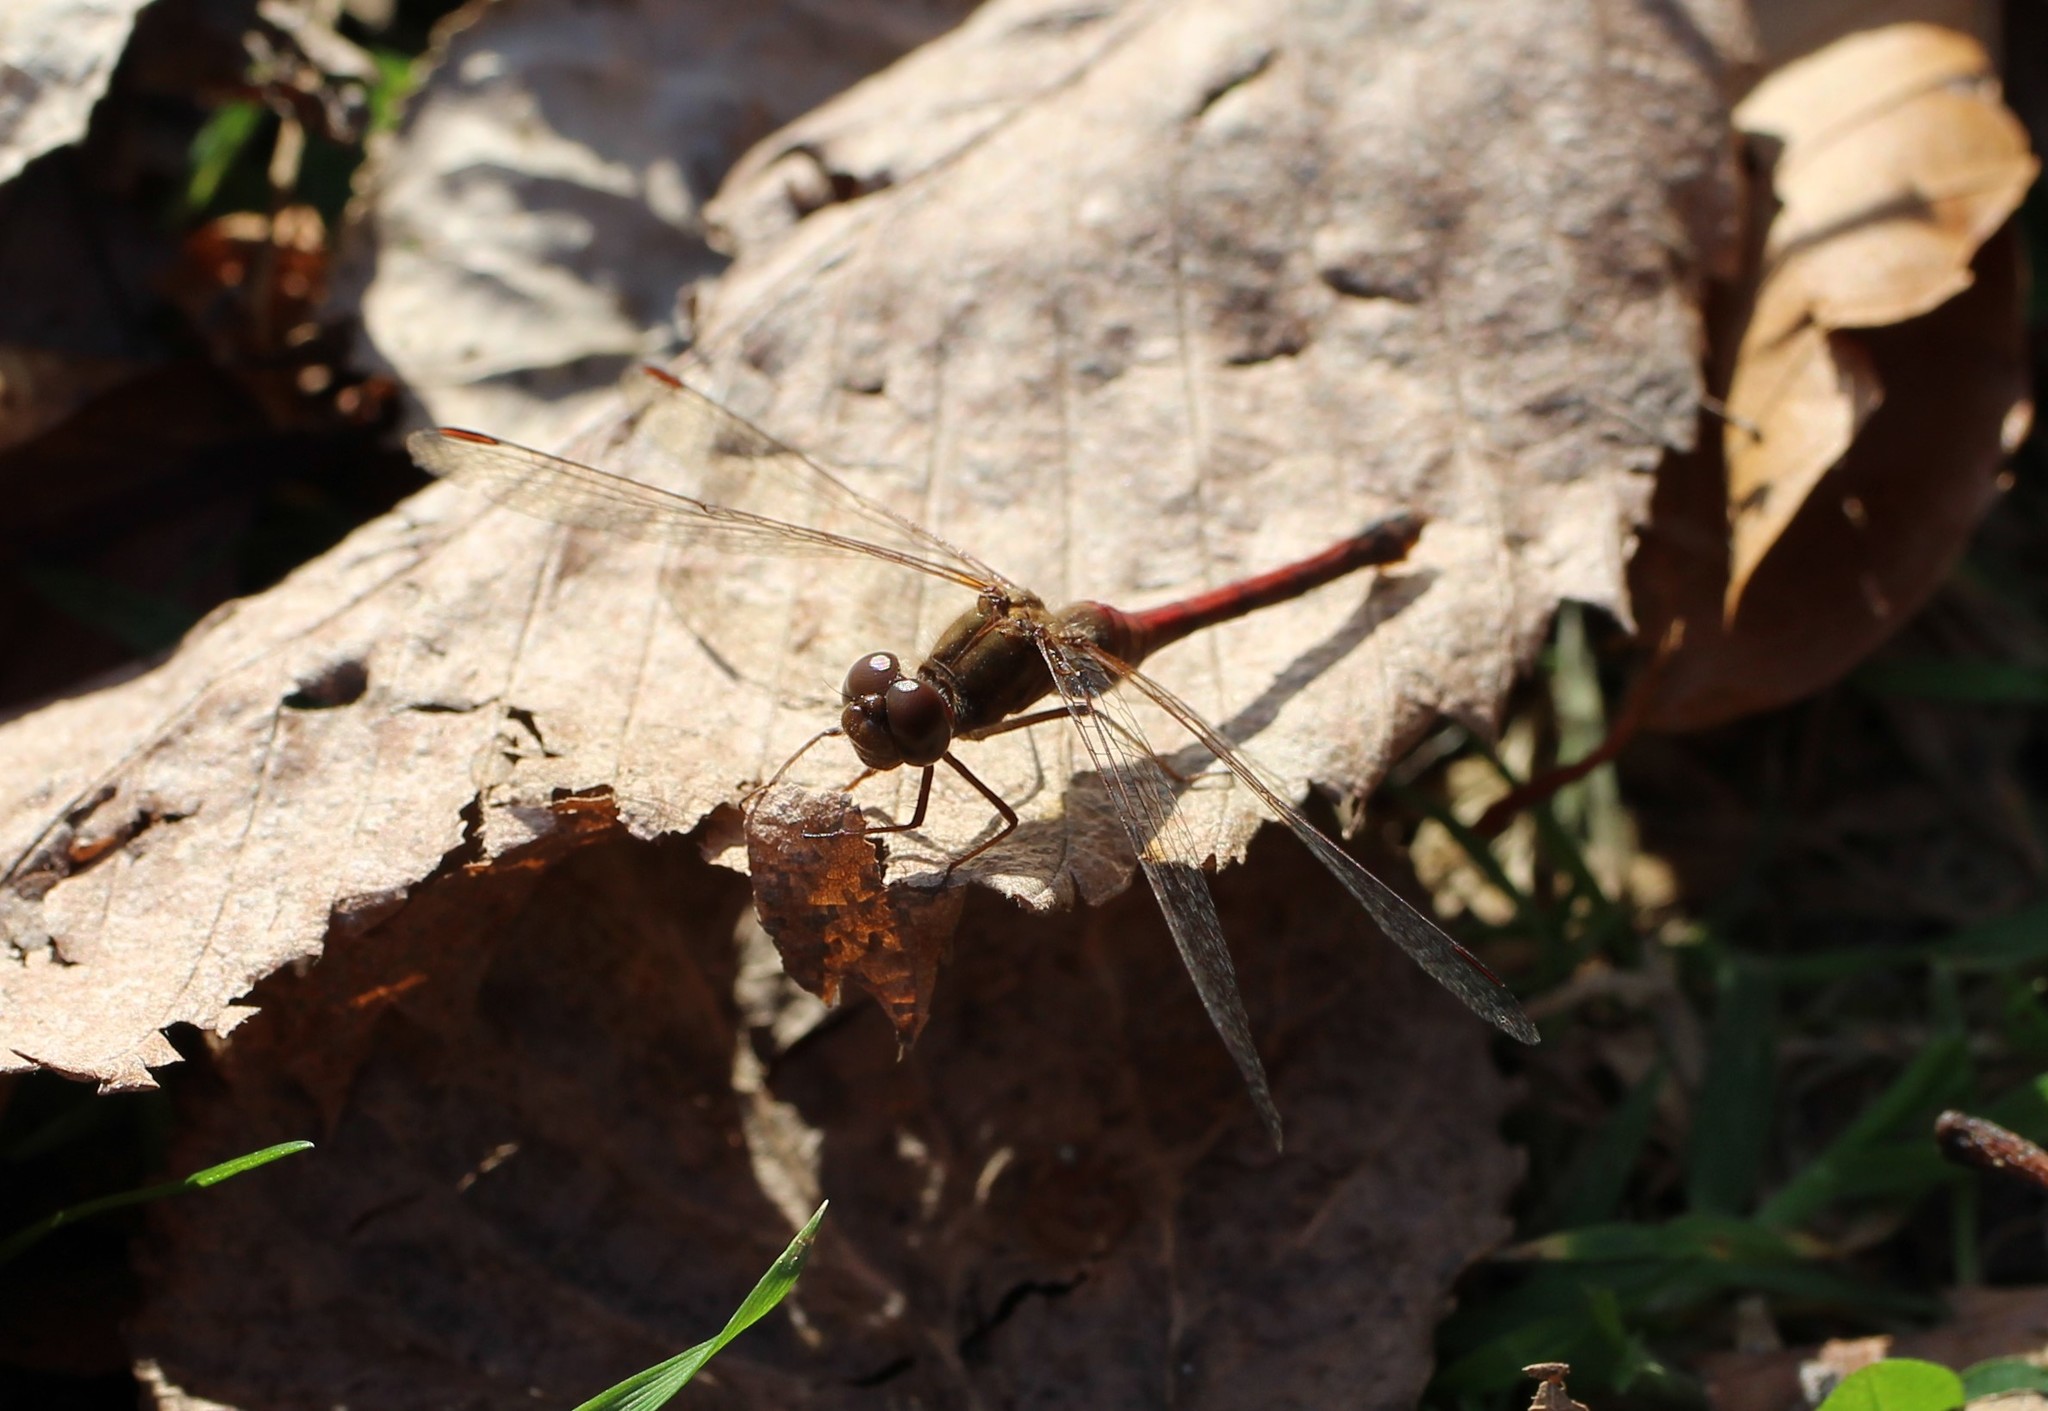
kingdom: Animalia
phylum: Arthropoda
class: Insecta
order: Odonata
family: Libellulidae
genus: Sympetrum
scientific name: Sympetrum vicinum
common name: Autumn meadowhawk
